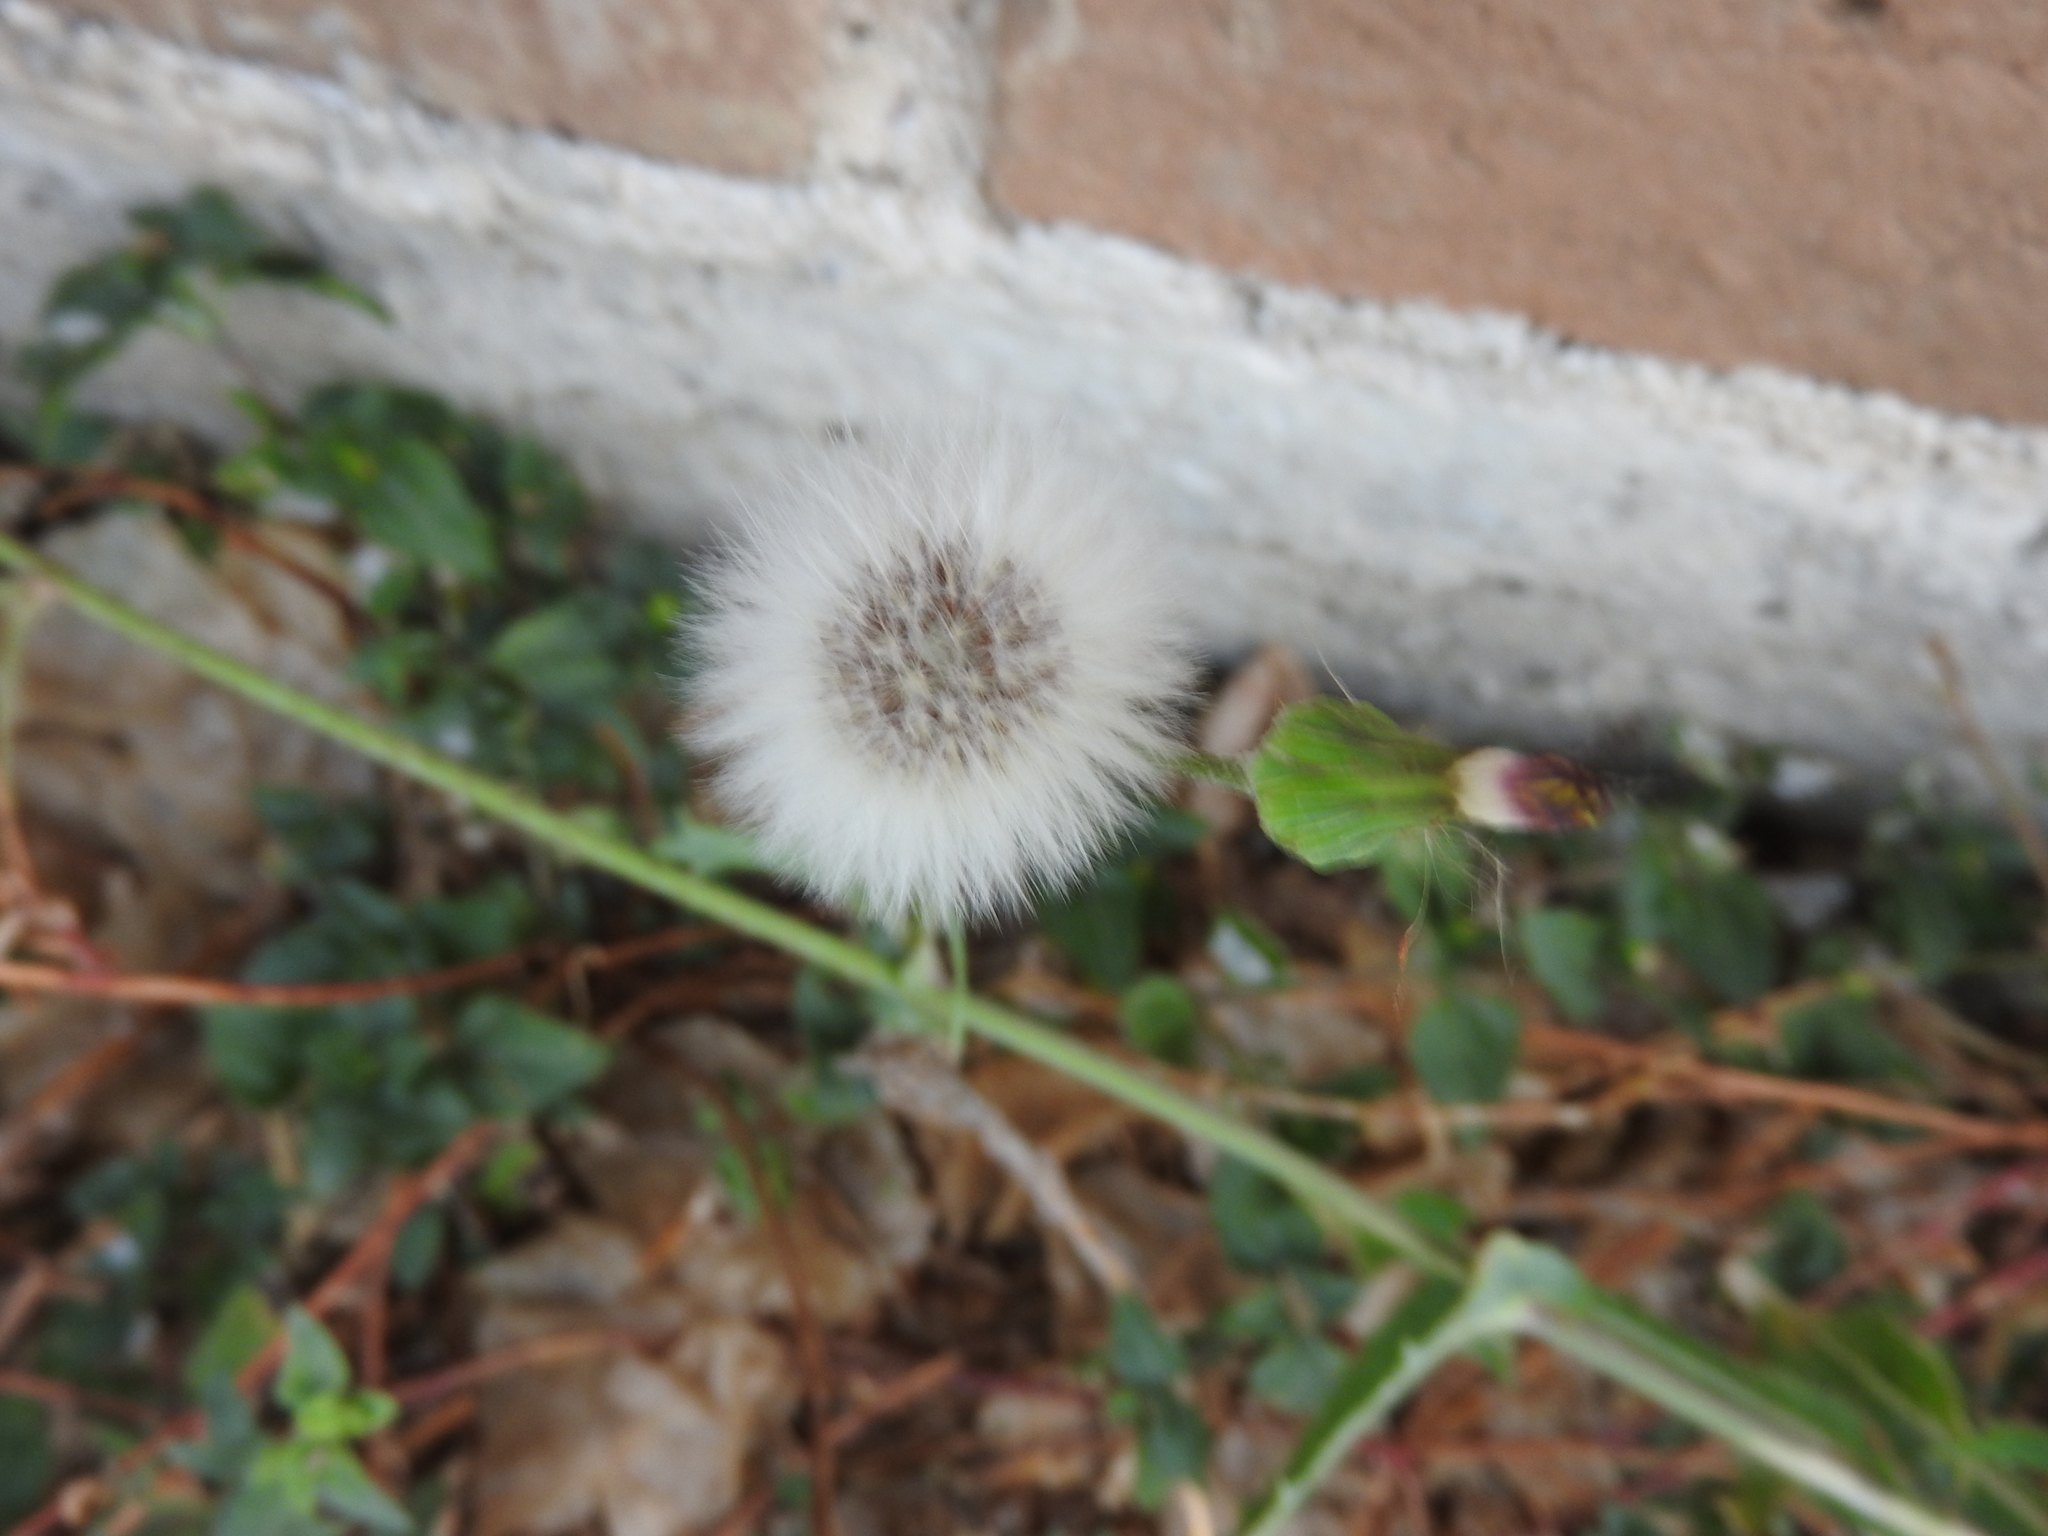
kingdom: Plantae
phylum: Tracheophyta
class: Magnoliopsida
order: Asterales
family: Asteraceae
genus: Sonchus
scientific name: Sonchus oleraceus
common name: Common sowthistle
